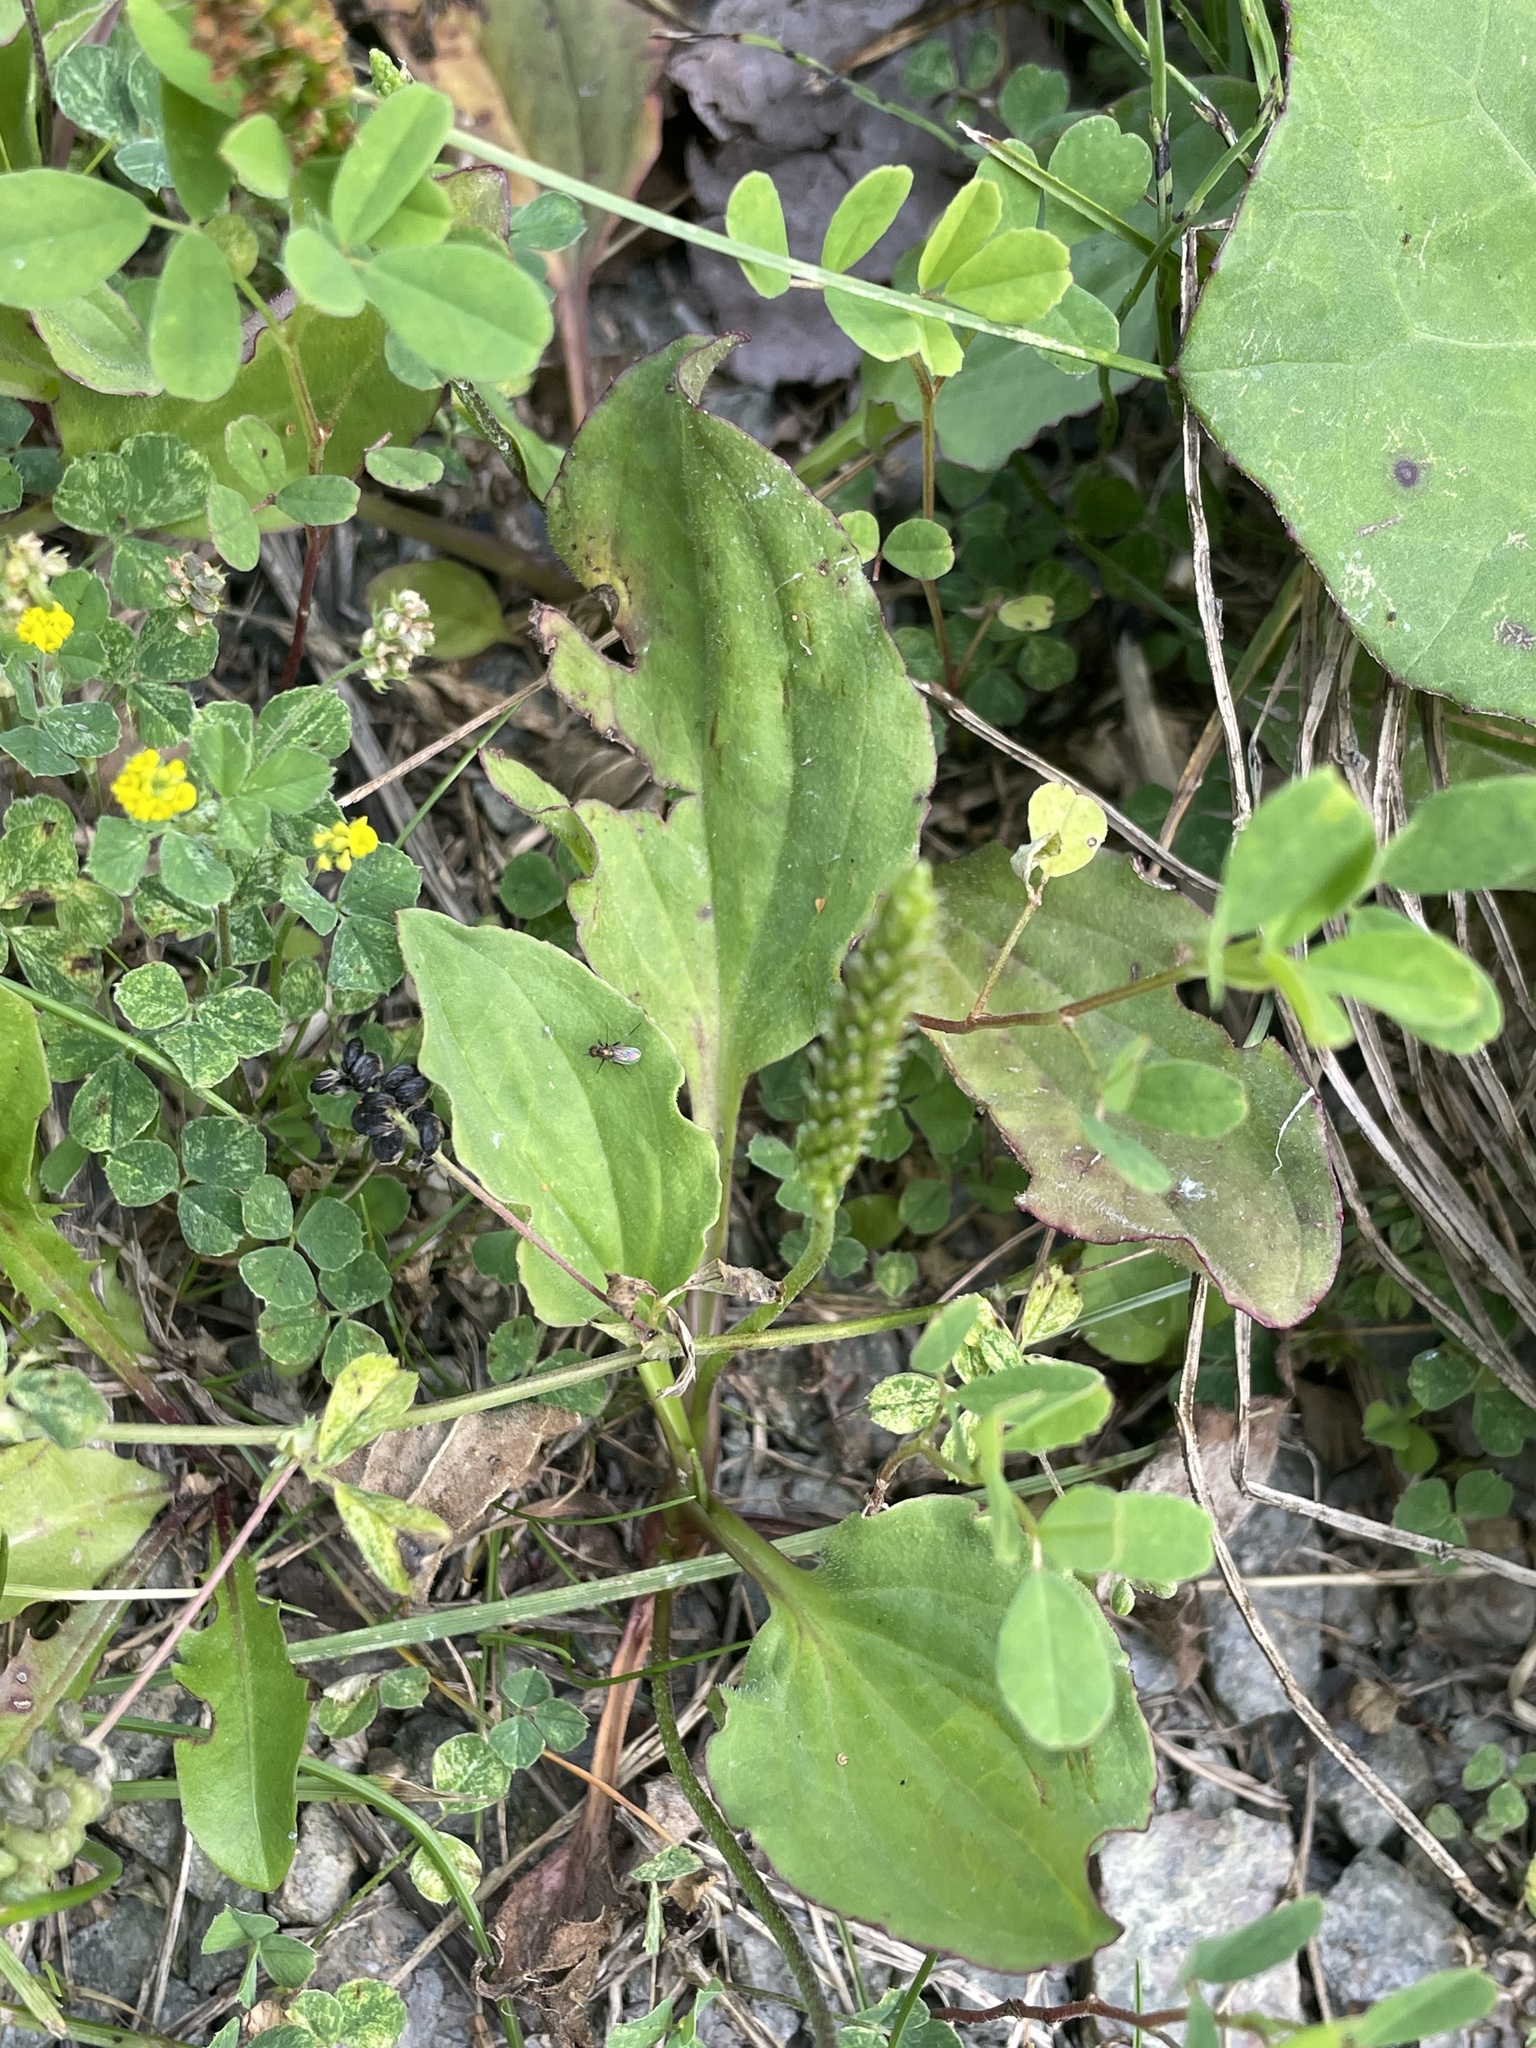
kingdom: Plantae
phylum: Tracheophyta
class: Magnoliopsida
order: Lamiales
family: Plantaginaceae
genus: Plantago
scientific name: Plantago major
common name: Common plantain
